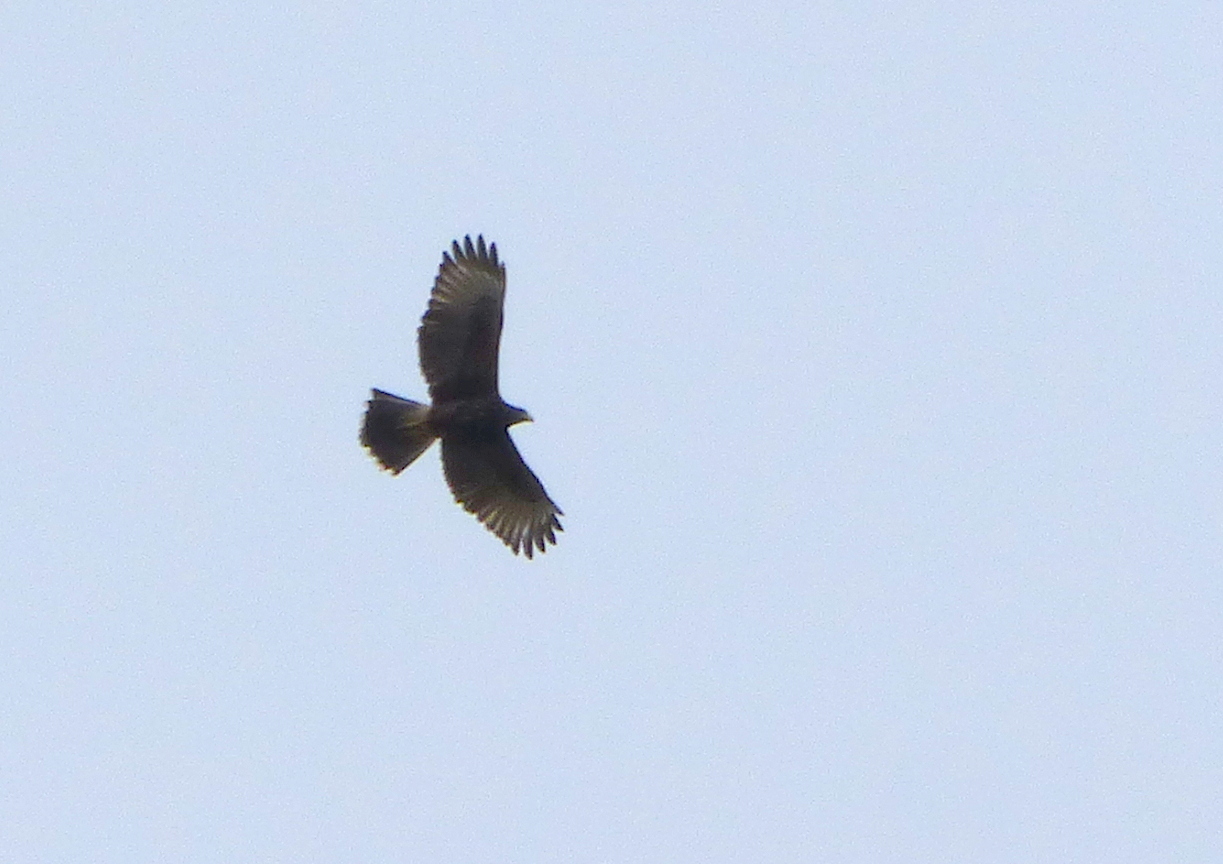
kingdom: Animalia
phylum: Chordata
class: Aves
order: Accipitriformes
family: Accipitridae
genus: Parabuteo
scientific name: Parabuteo unicinctus
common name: Harris's hawk
